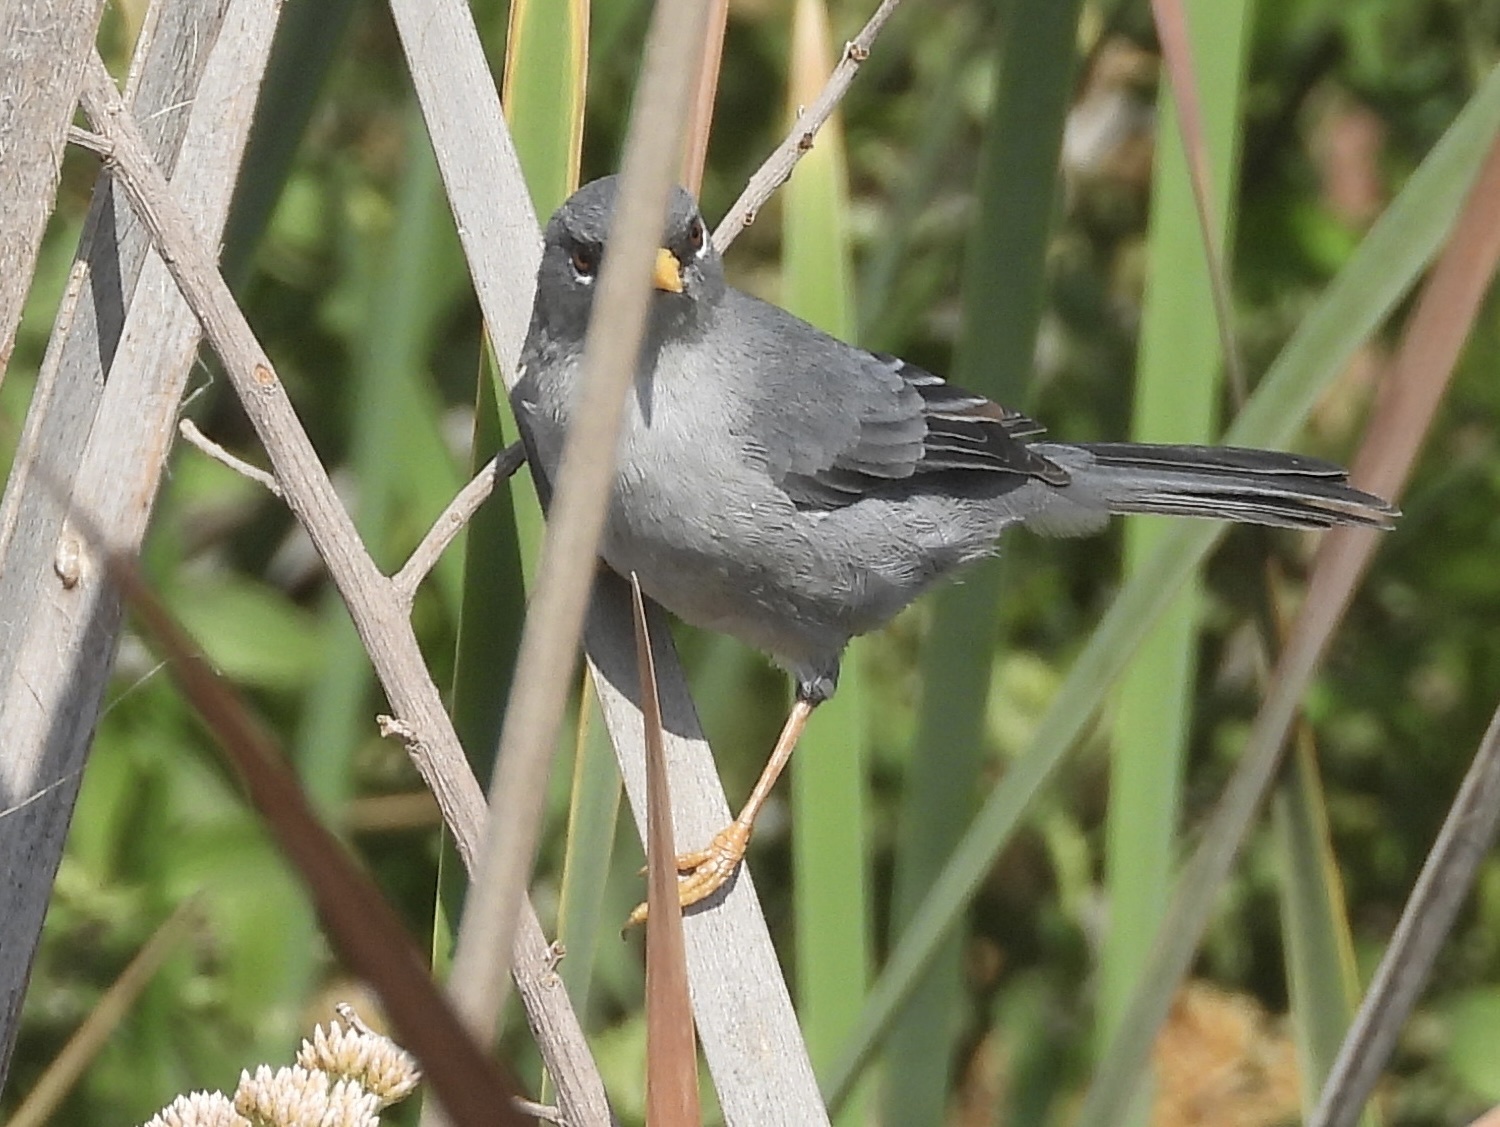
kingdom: Animalia
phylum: Chordata
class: Aves
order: Passeriformes
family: Thraupidae
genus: Xenospingus
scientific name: Xenospingus concolor
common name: Slender-billed finch
